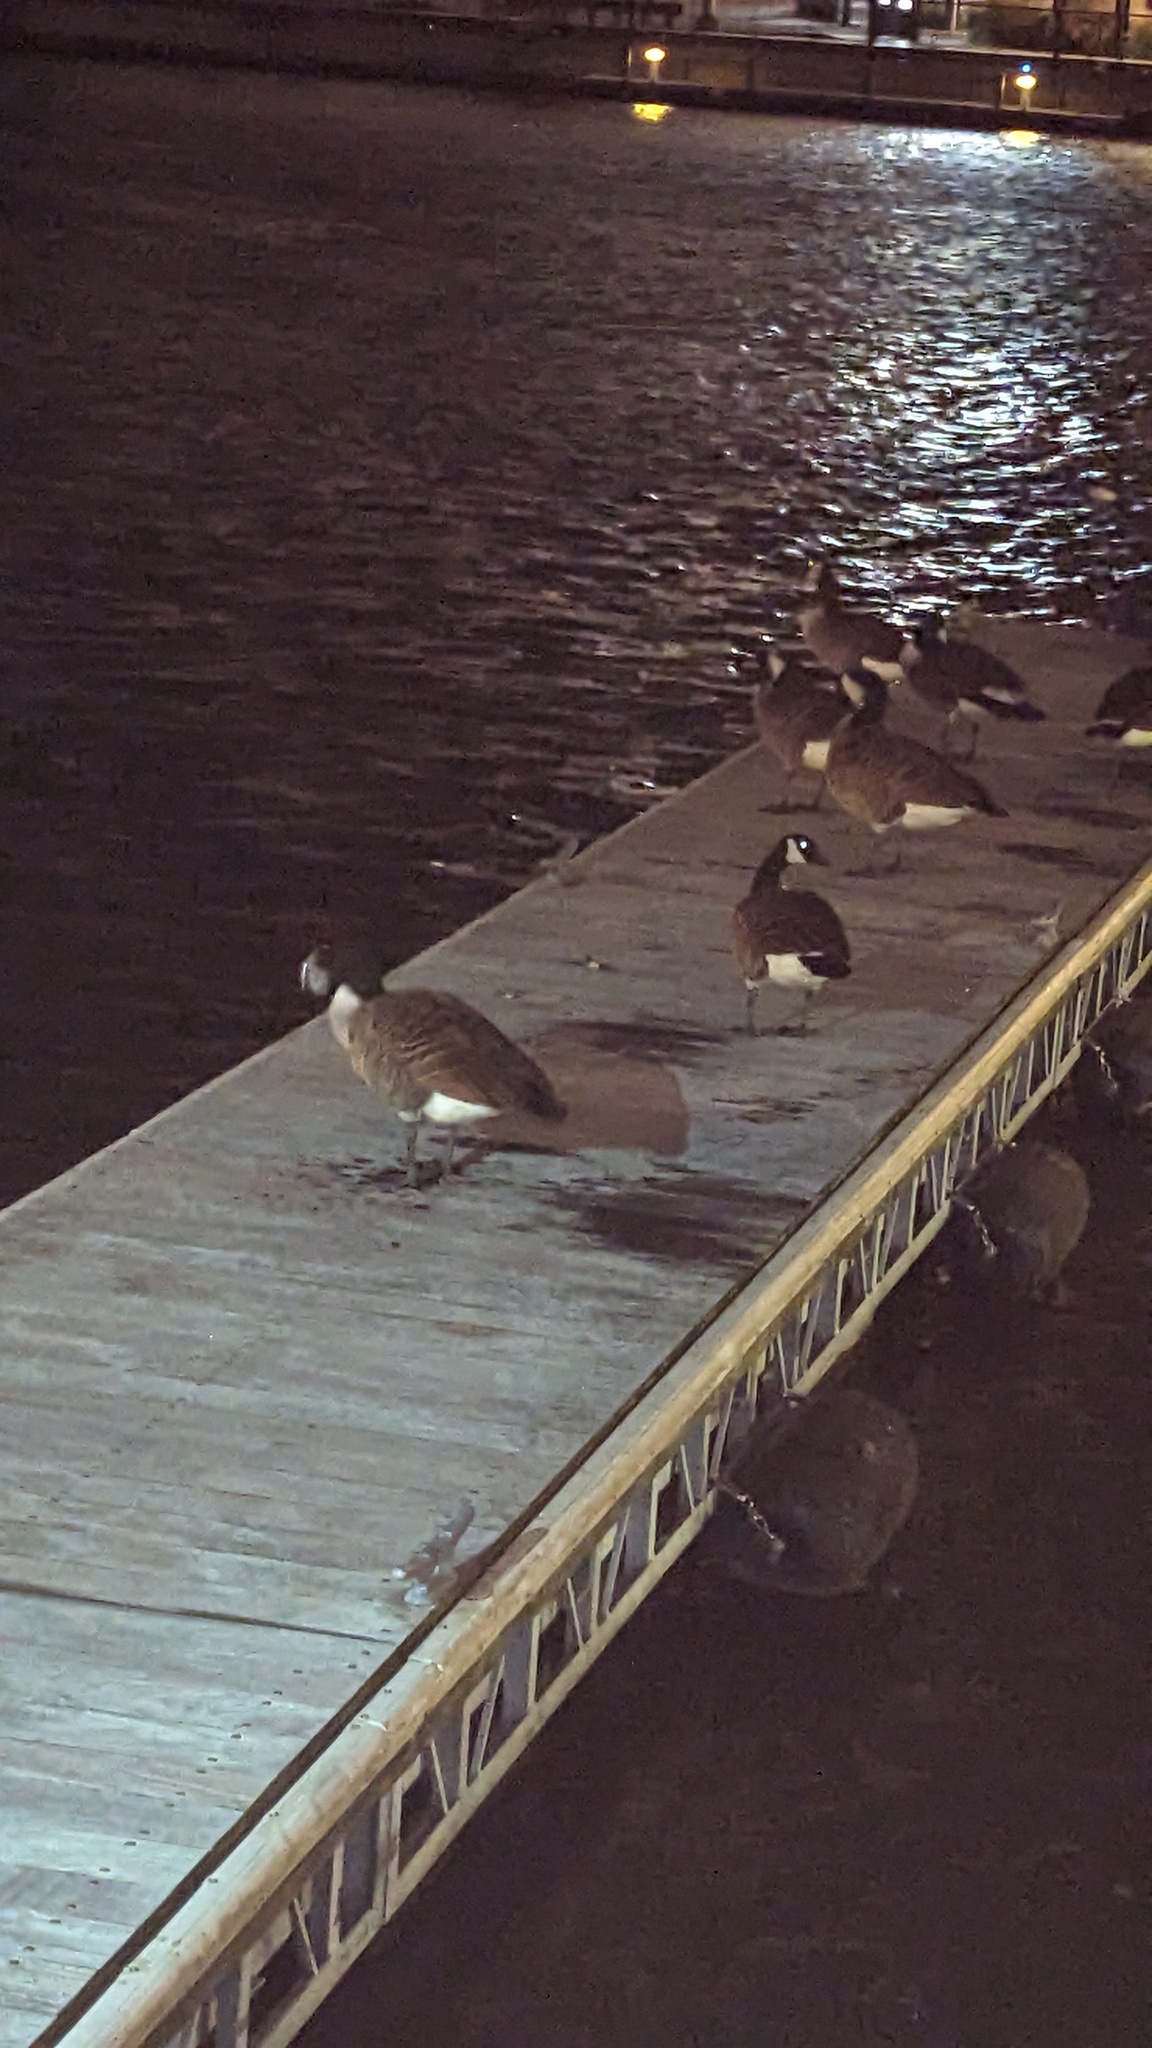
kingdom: Animalia
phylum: Chordata
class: Aves
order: Anseriformes
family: Anatidae
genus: Branta
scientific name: Branta canadensis
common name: Canada goose
